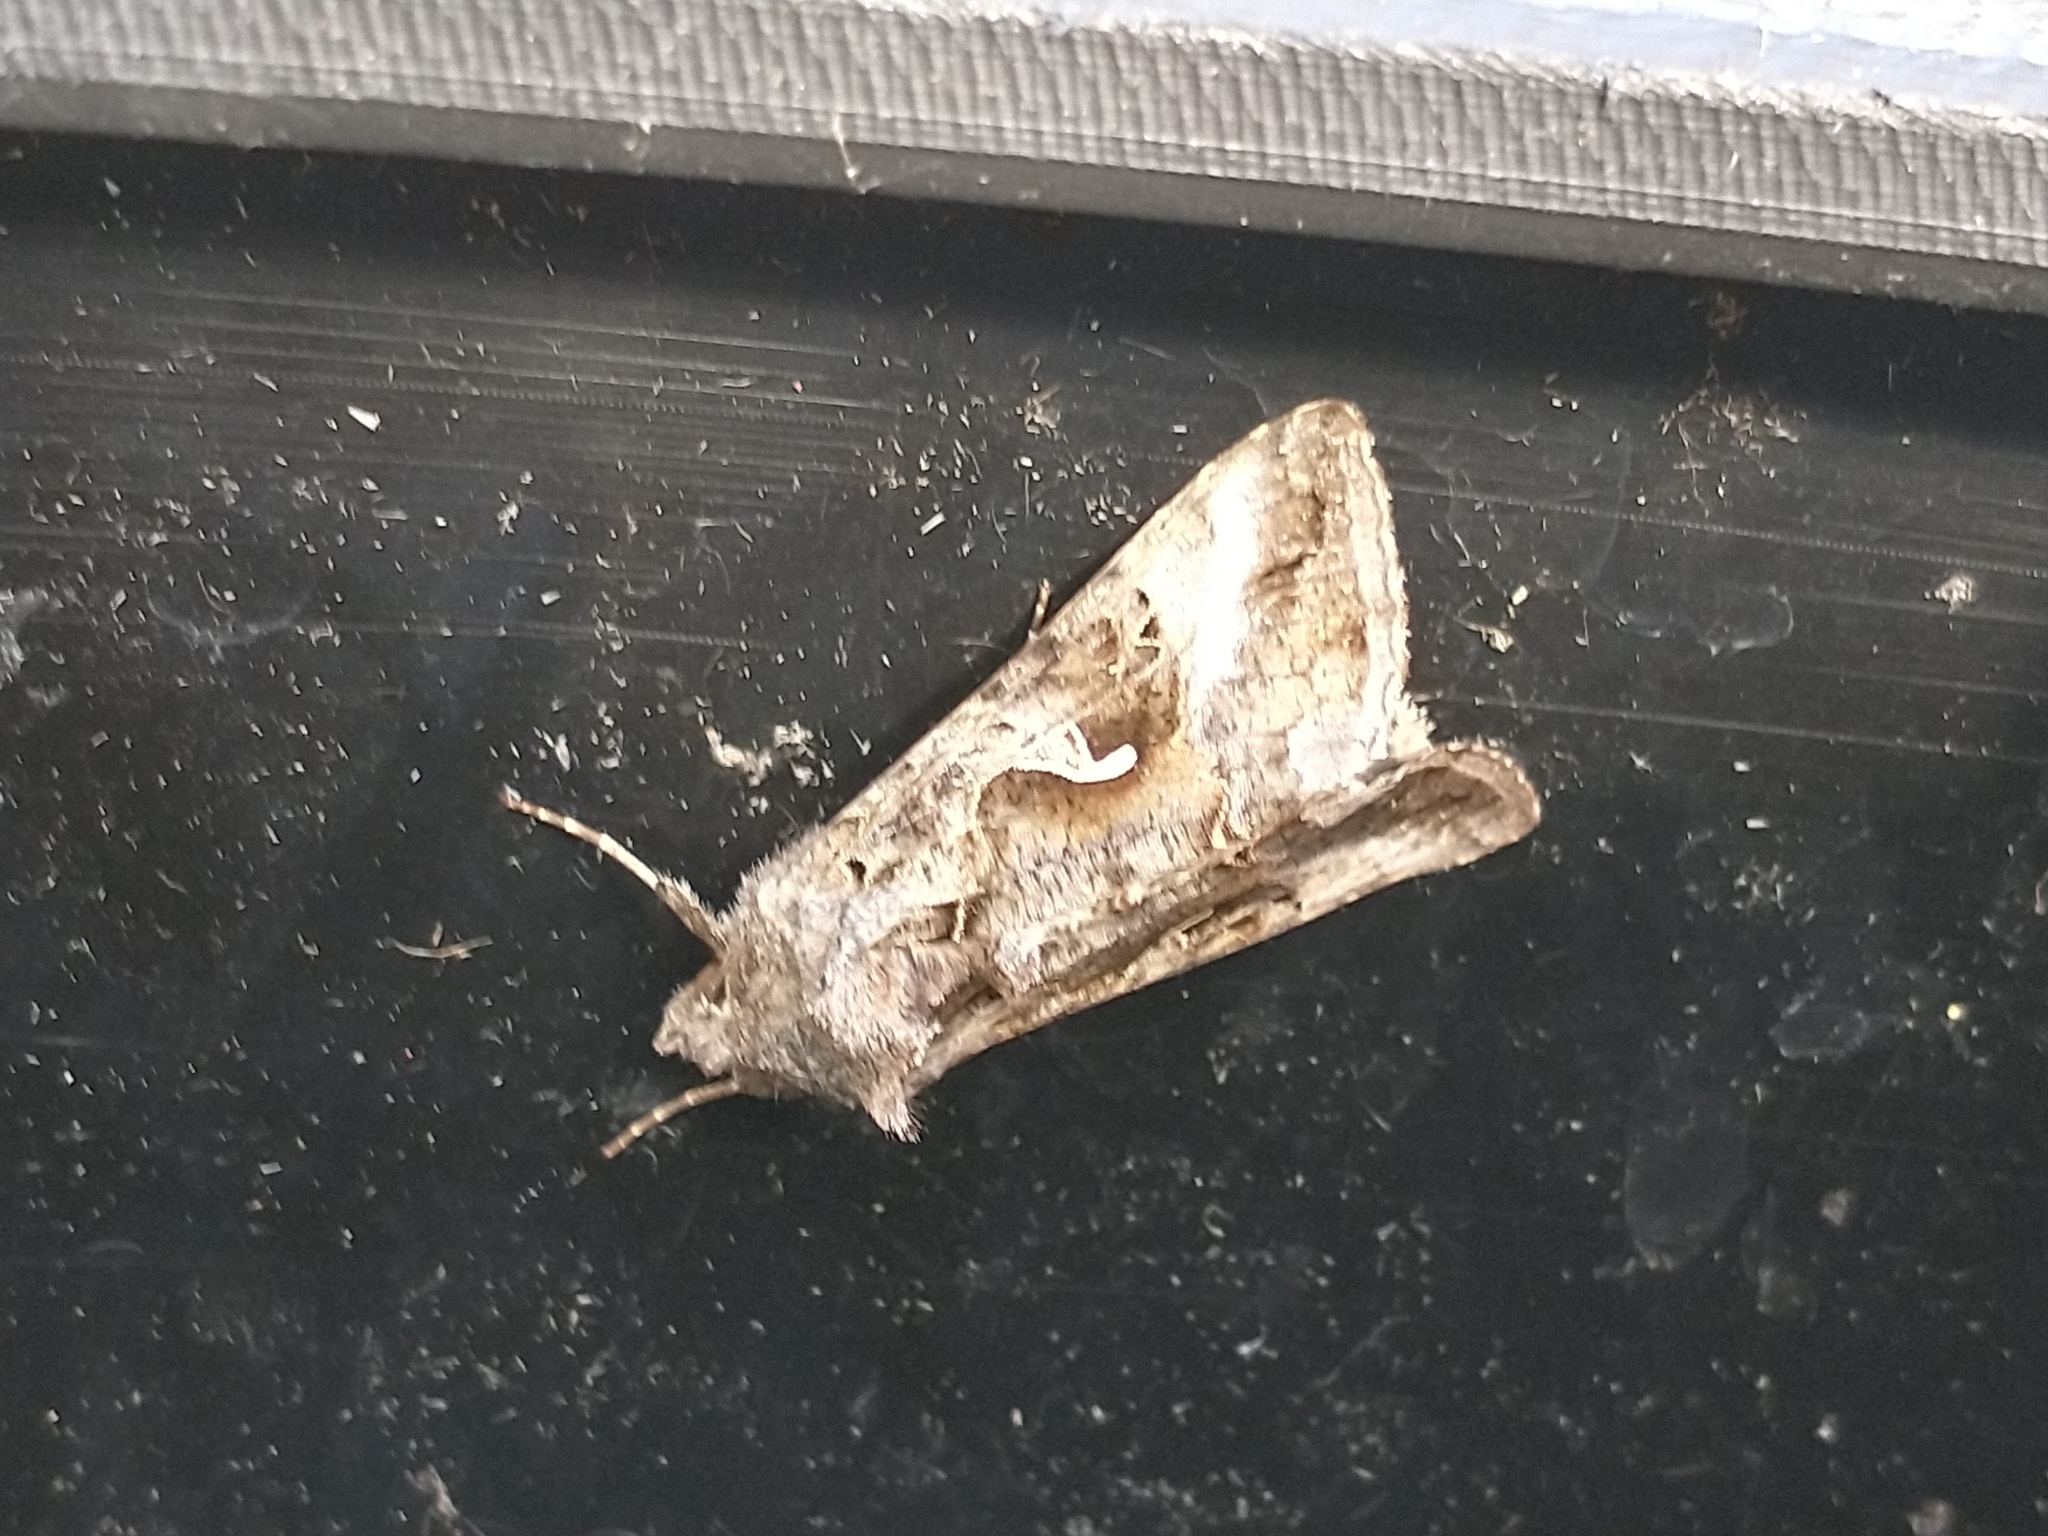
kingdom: Animalia
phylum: Arthropoda
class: Insecta
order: Lepidoptera
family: Noctuidae
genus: Autographa
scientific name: Autographa gamma
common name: Silver y
